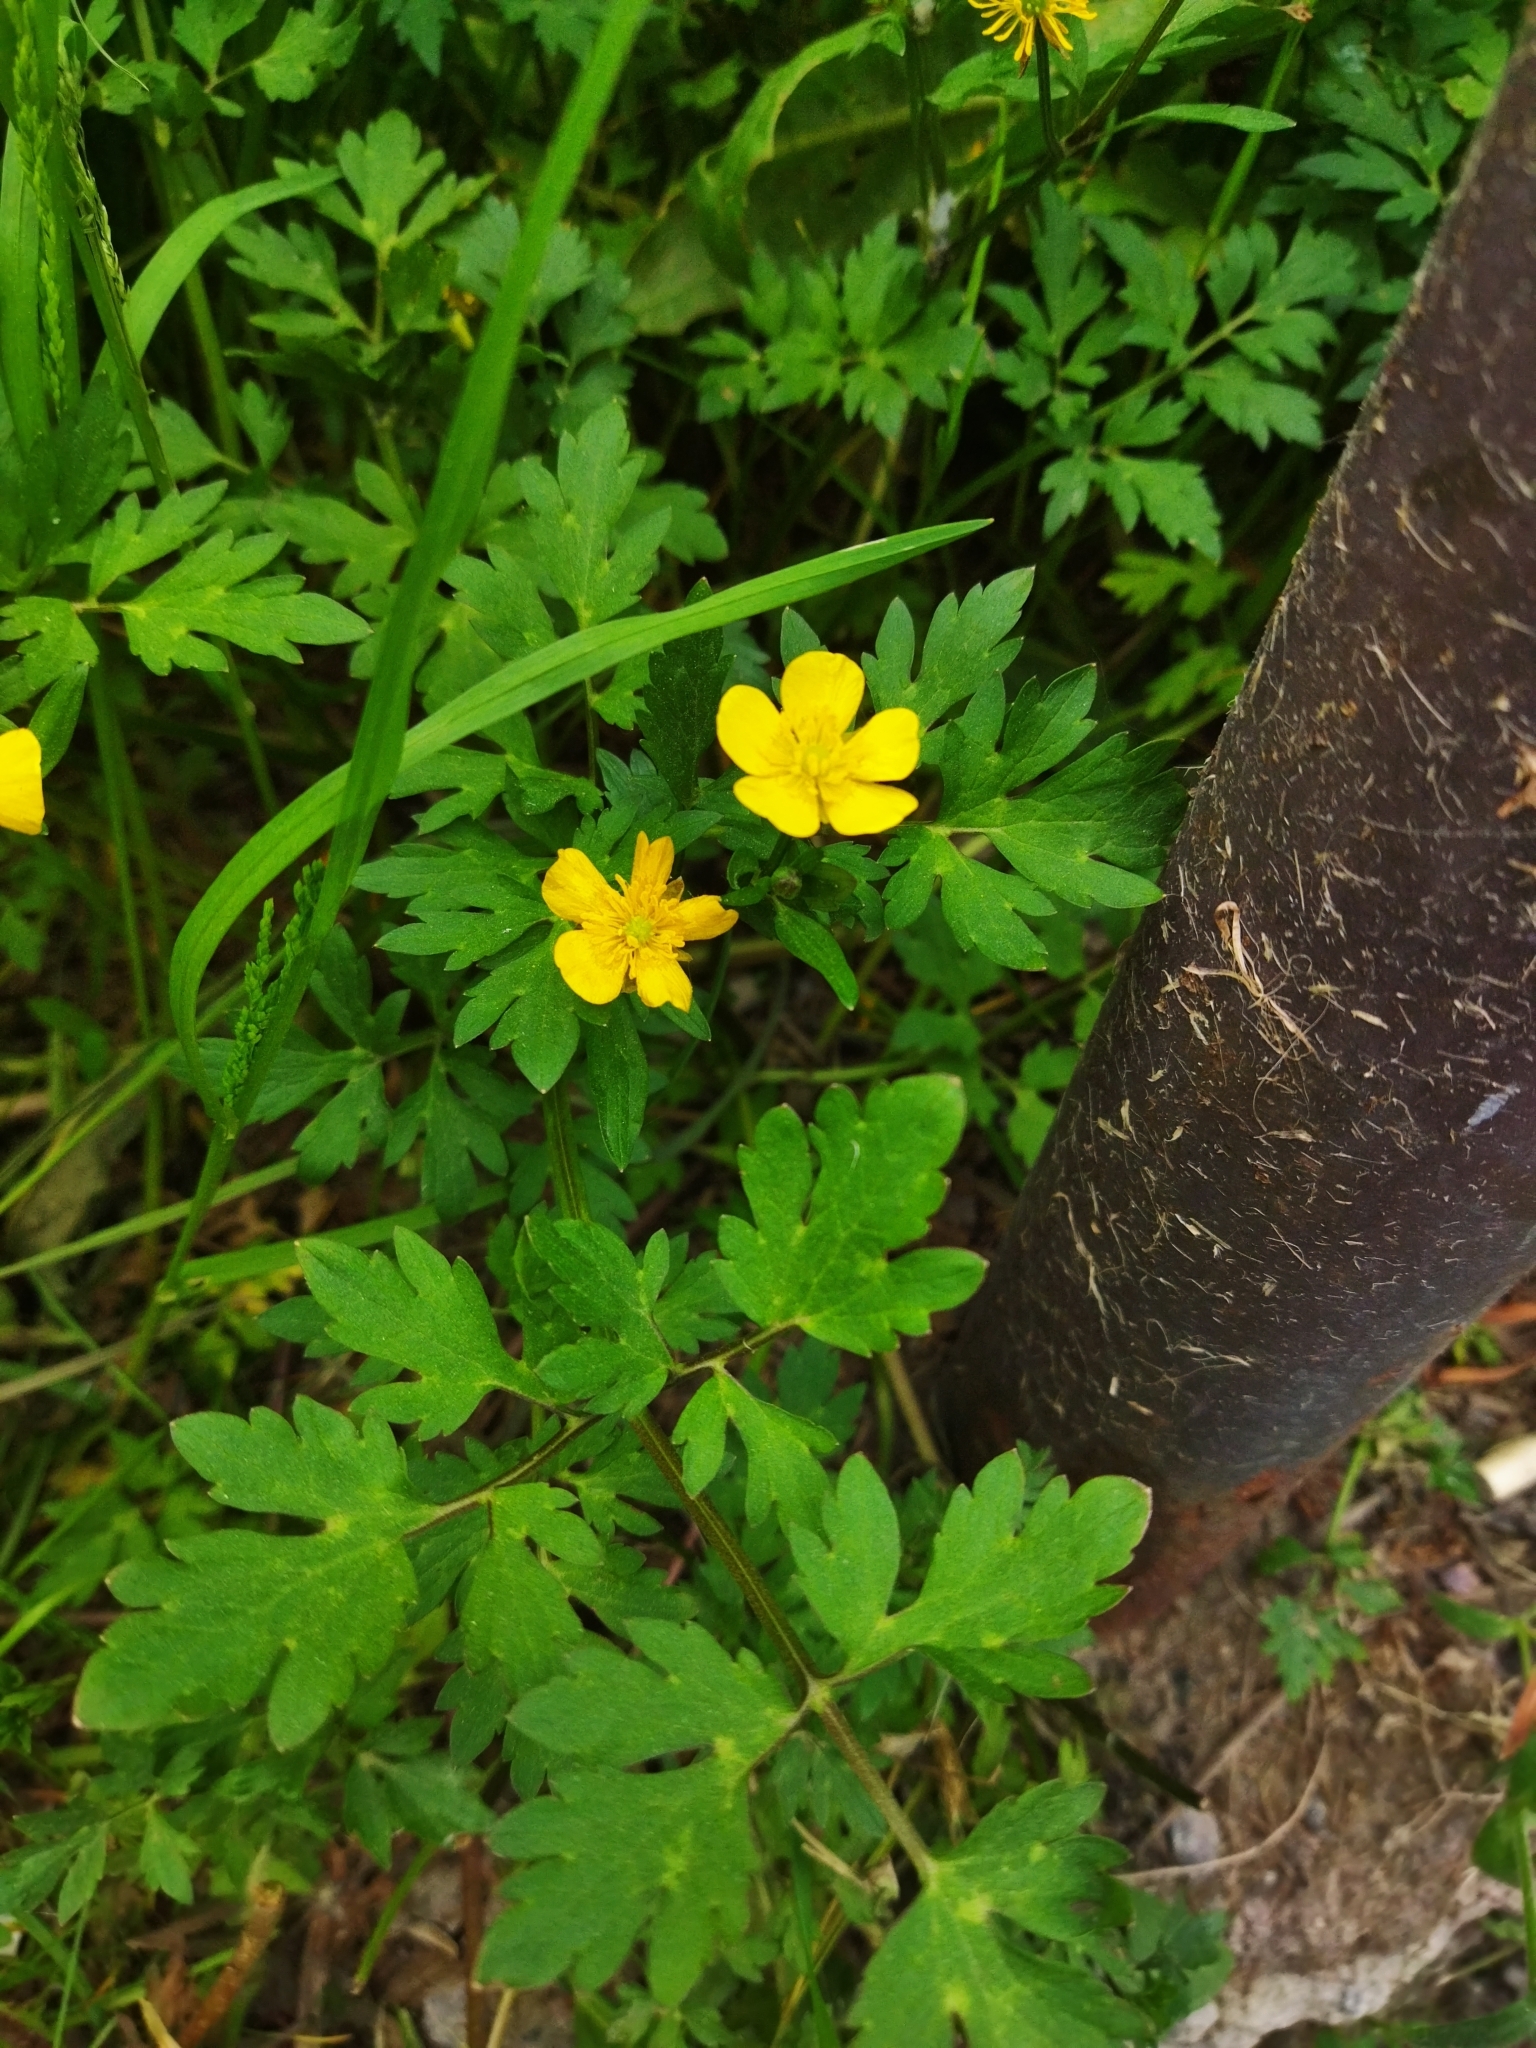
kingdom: Plantae
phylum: Tracheophyta
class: Magnoliopsida
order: Ranunculales
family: Ranunculaceae
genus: Ranunculus
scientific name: Ranunculus repens
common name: Creeping buttercup
